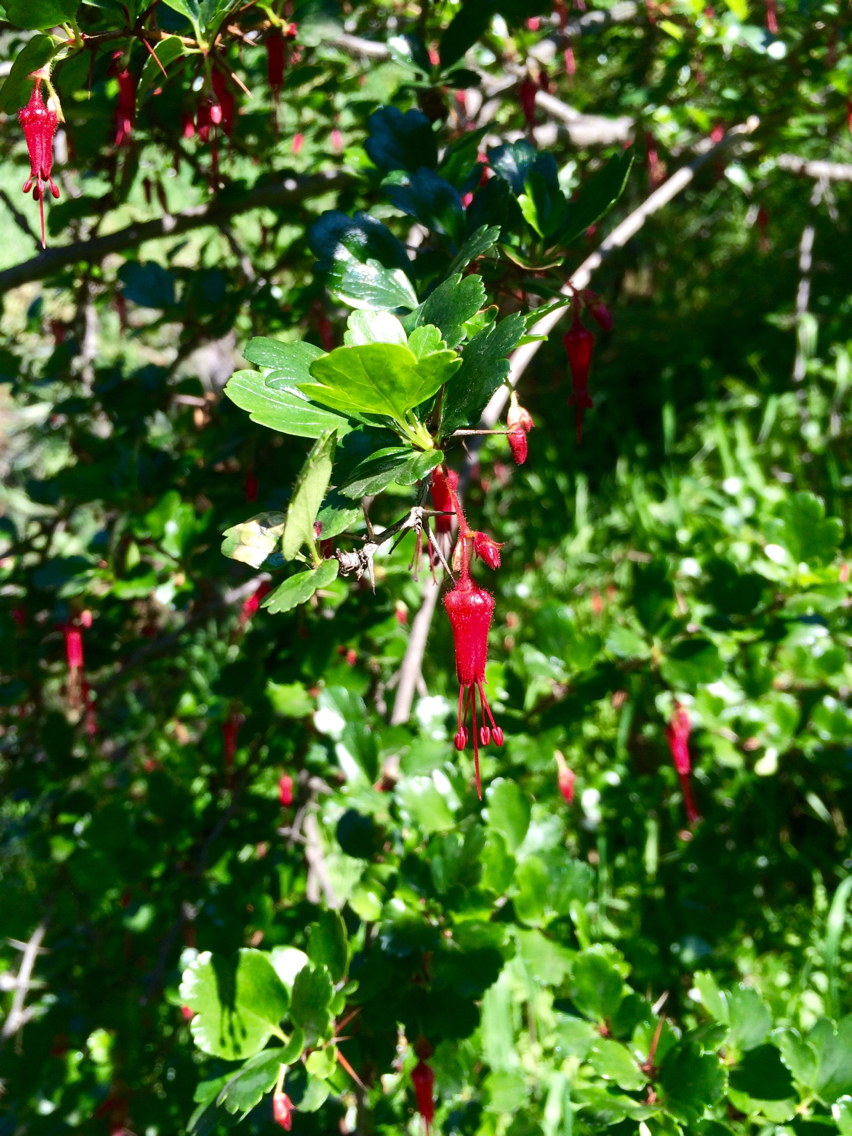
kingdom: Plantae
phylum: Tracheophyta
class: Magnoliopsida
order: Saxifragales
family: Grossulariaceae
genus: Ribes
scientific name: Ribes speciosum
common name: Fuchsia-flower gooseberry
